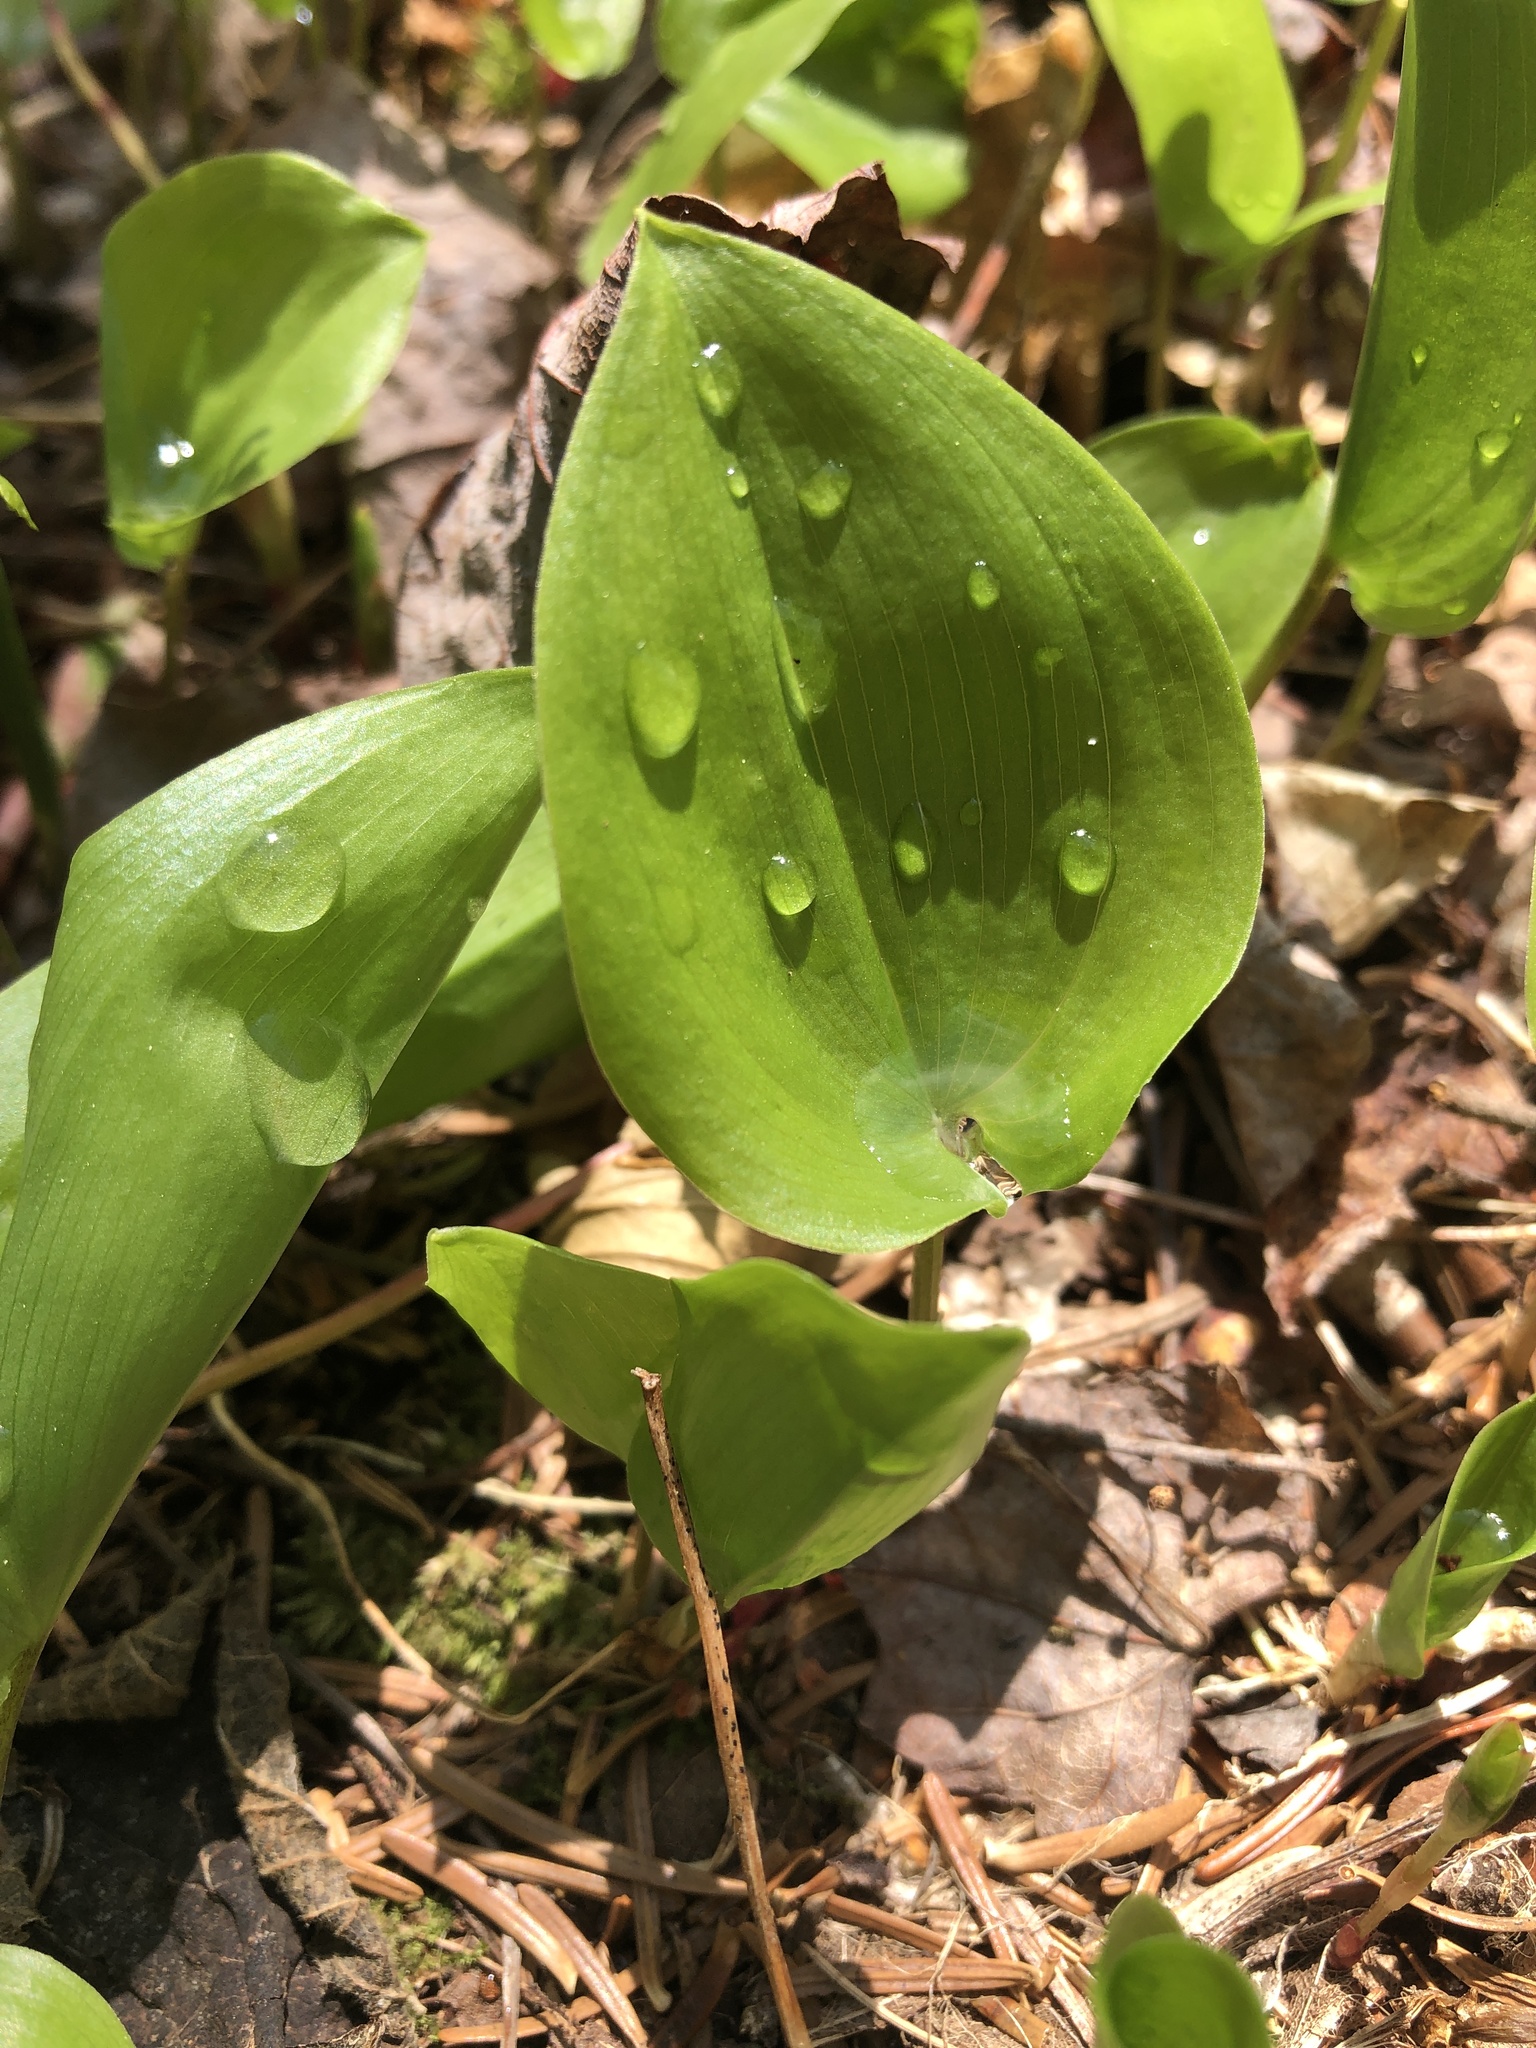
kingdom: Plantae
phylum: Tracheophyta
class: Liliopsida
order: Asparagales
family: Asparagaceae
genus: Maianthemum
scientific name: Maianthemum canadense
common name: False lily-of-the-valley
